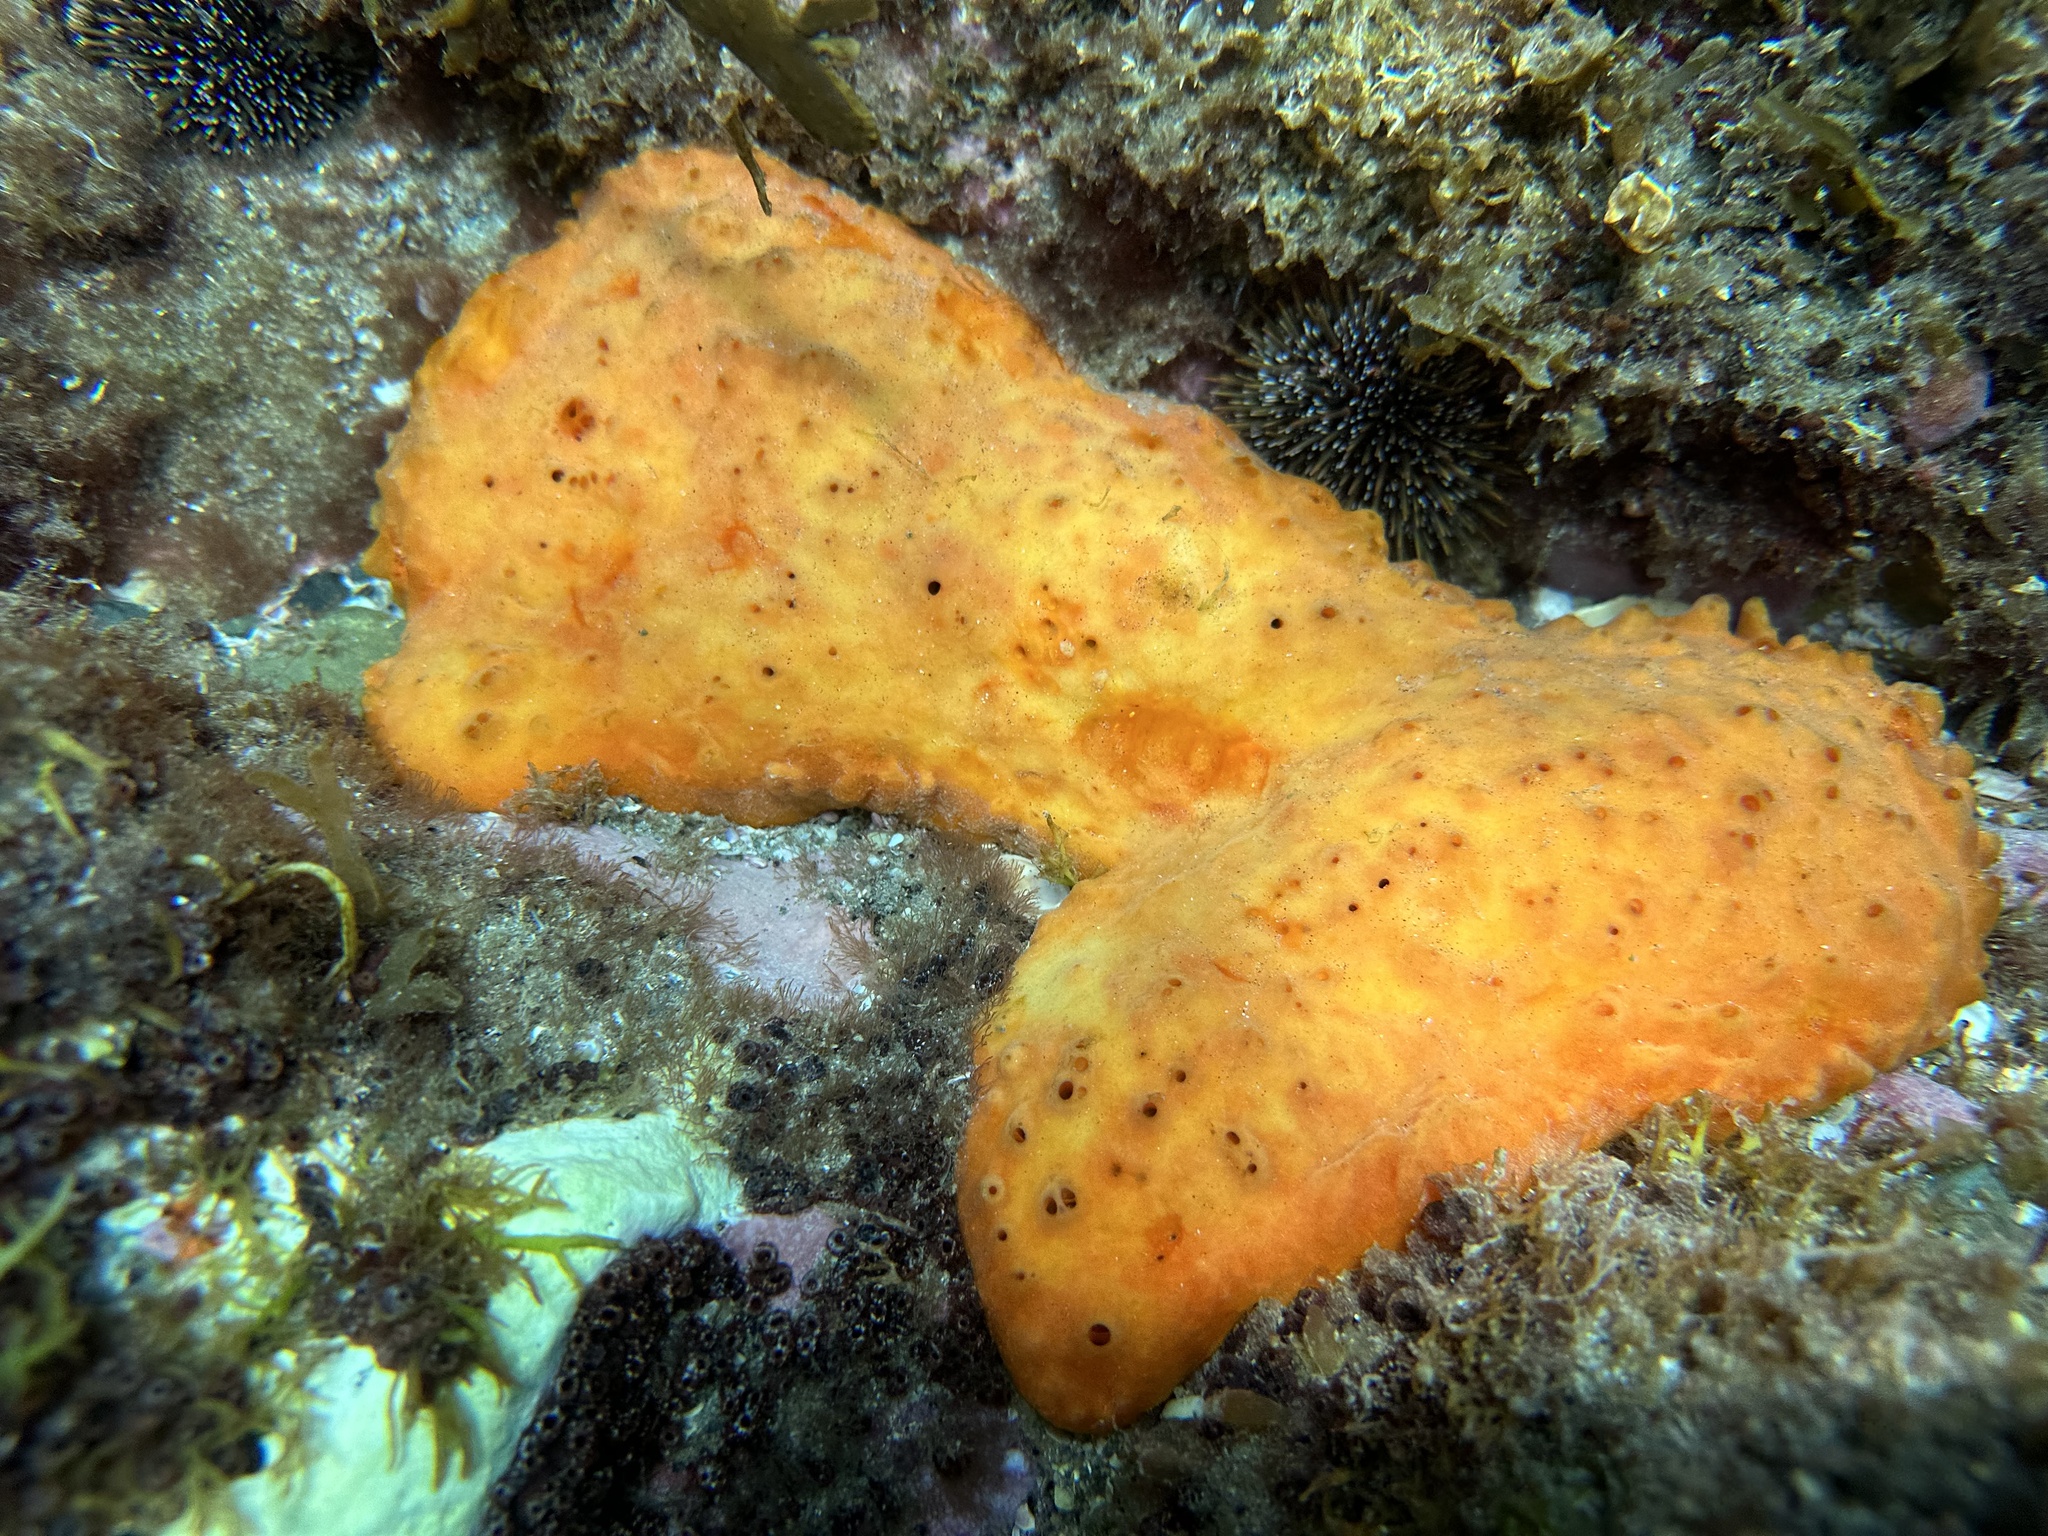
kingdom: Animalia
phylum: Porifera
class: Demospongiae
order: Polymastiida
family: Polymastiidae
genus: Polymastia
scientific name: Polymastia aurantia
